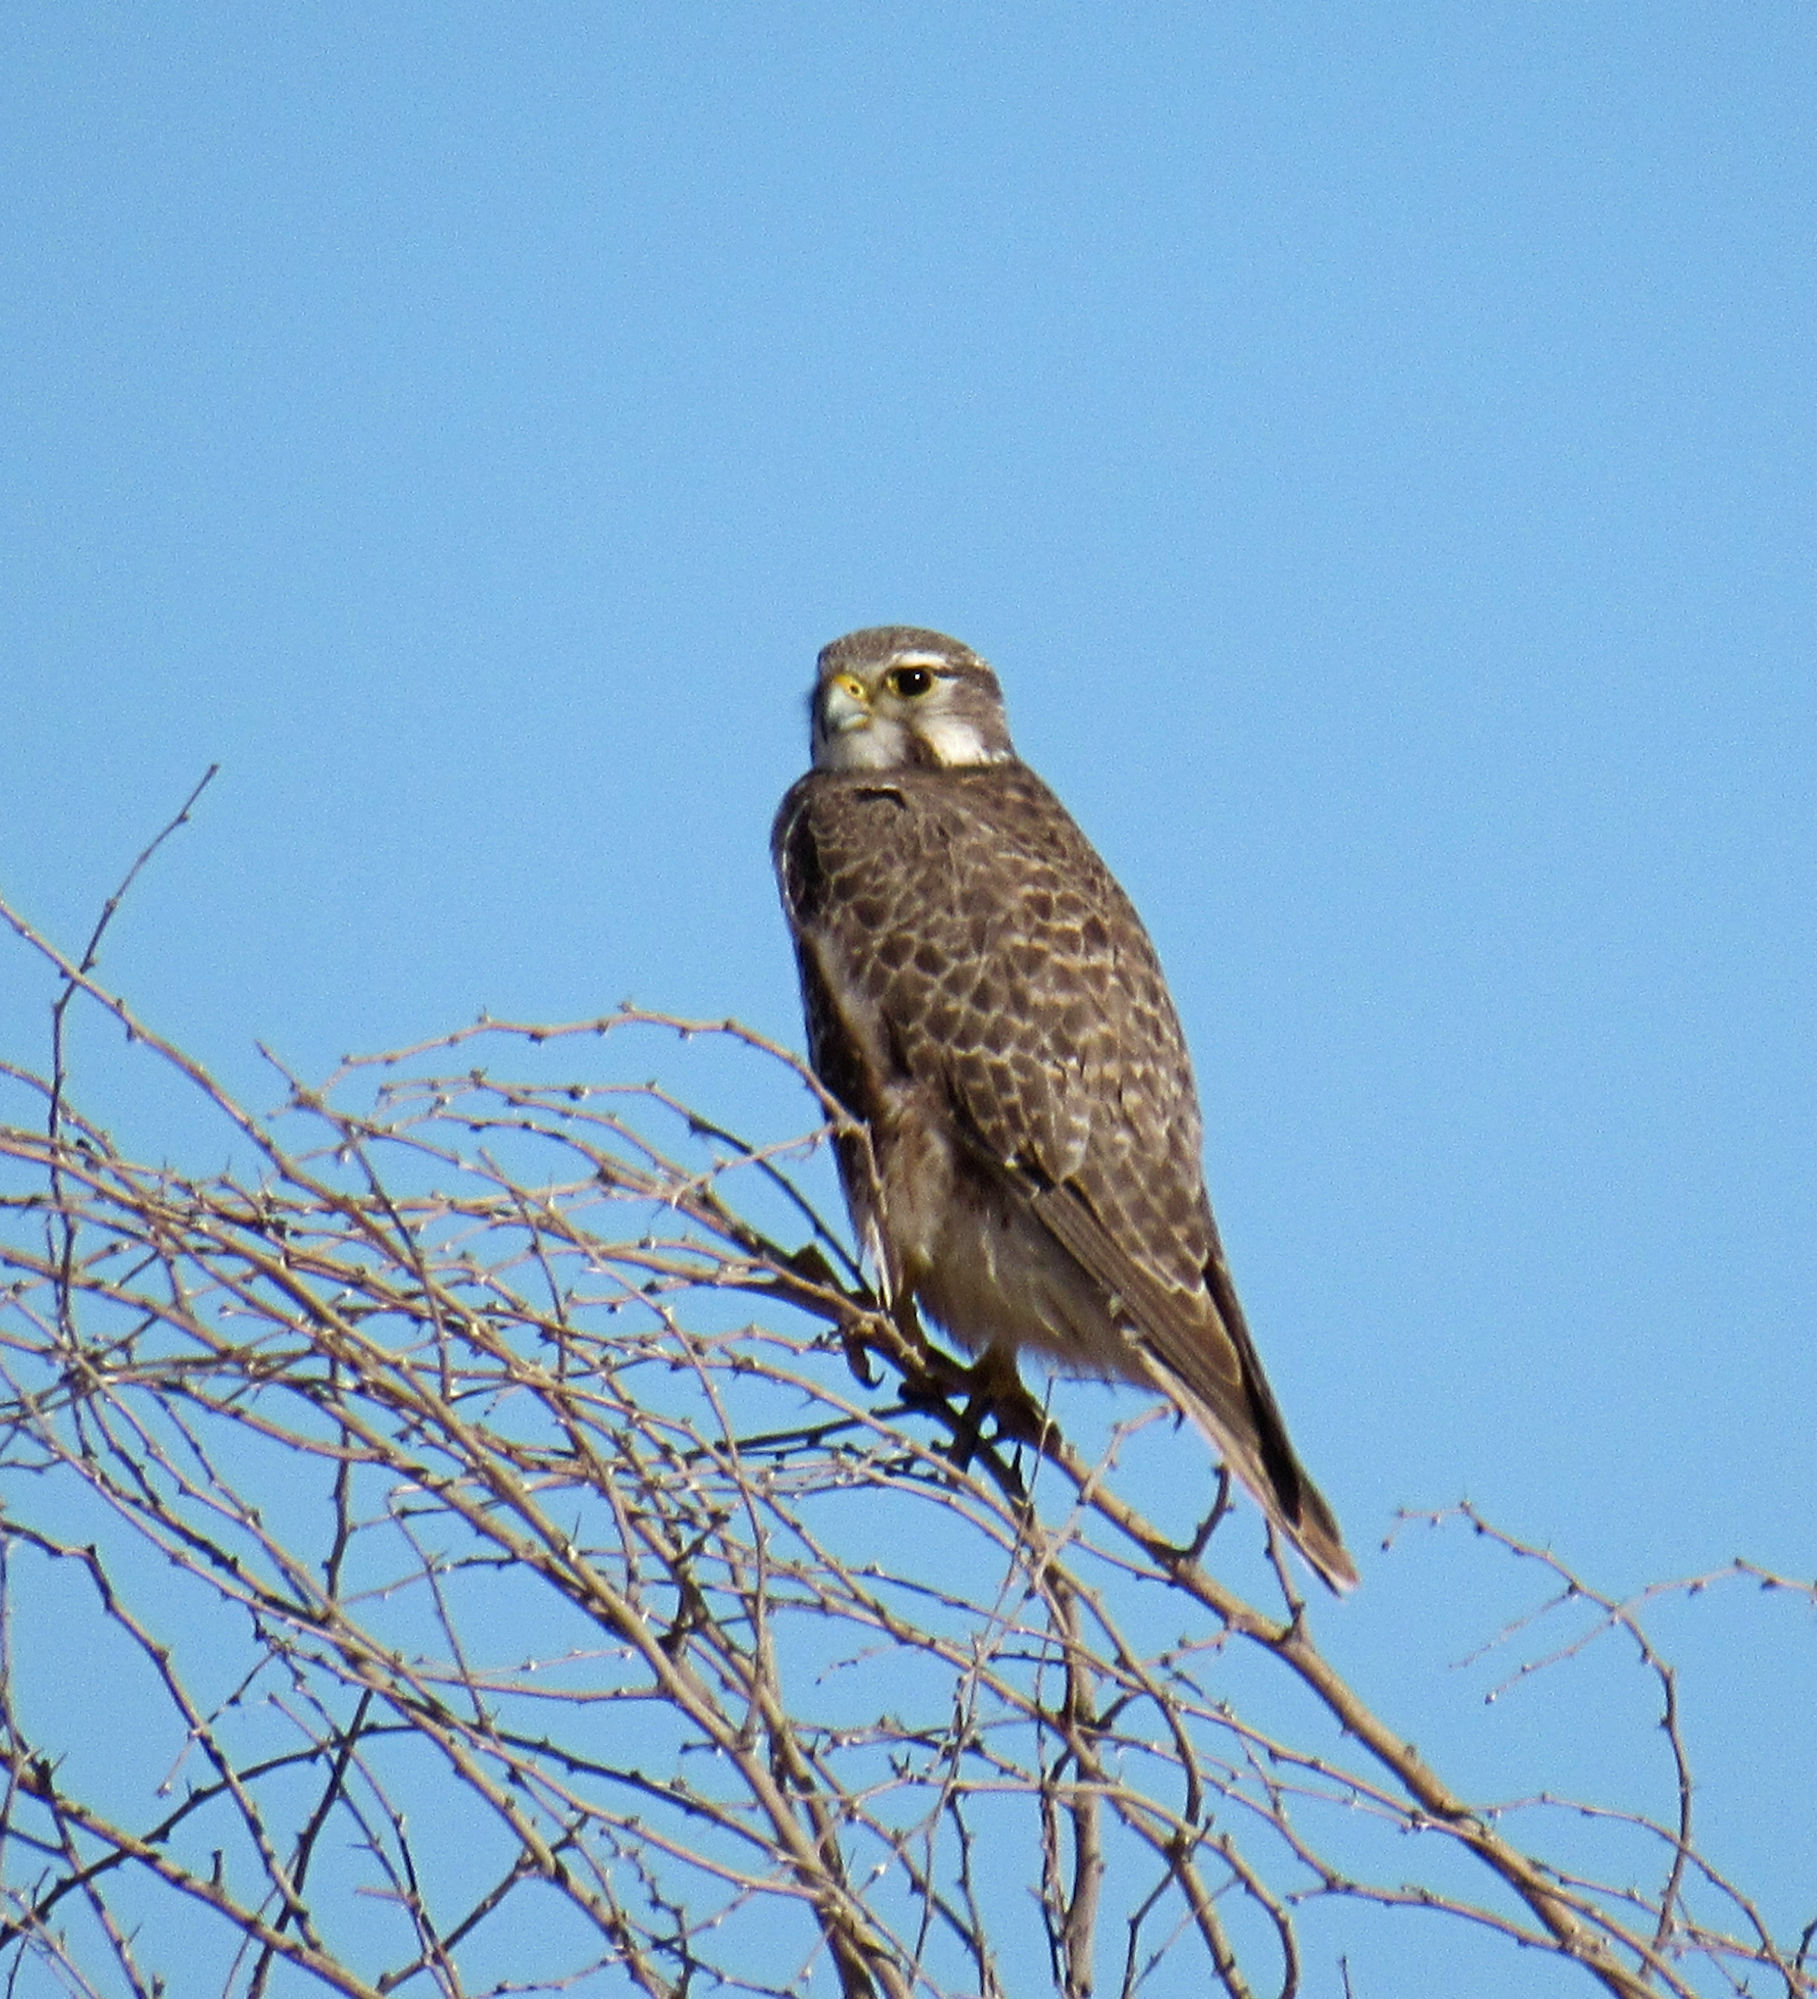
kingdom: Animalia
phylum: Chordata
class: Aves
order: Falconiformes
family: Falconidae
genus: Falco
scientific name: Falco mexicanus
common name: Prairie falcon
